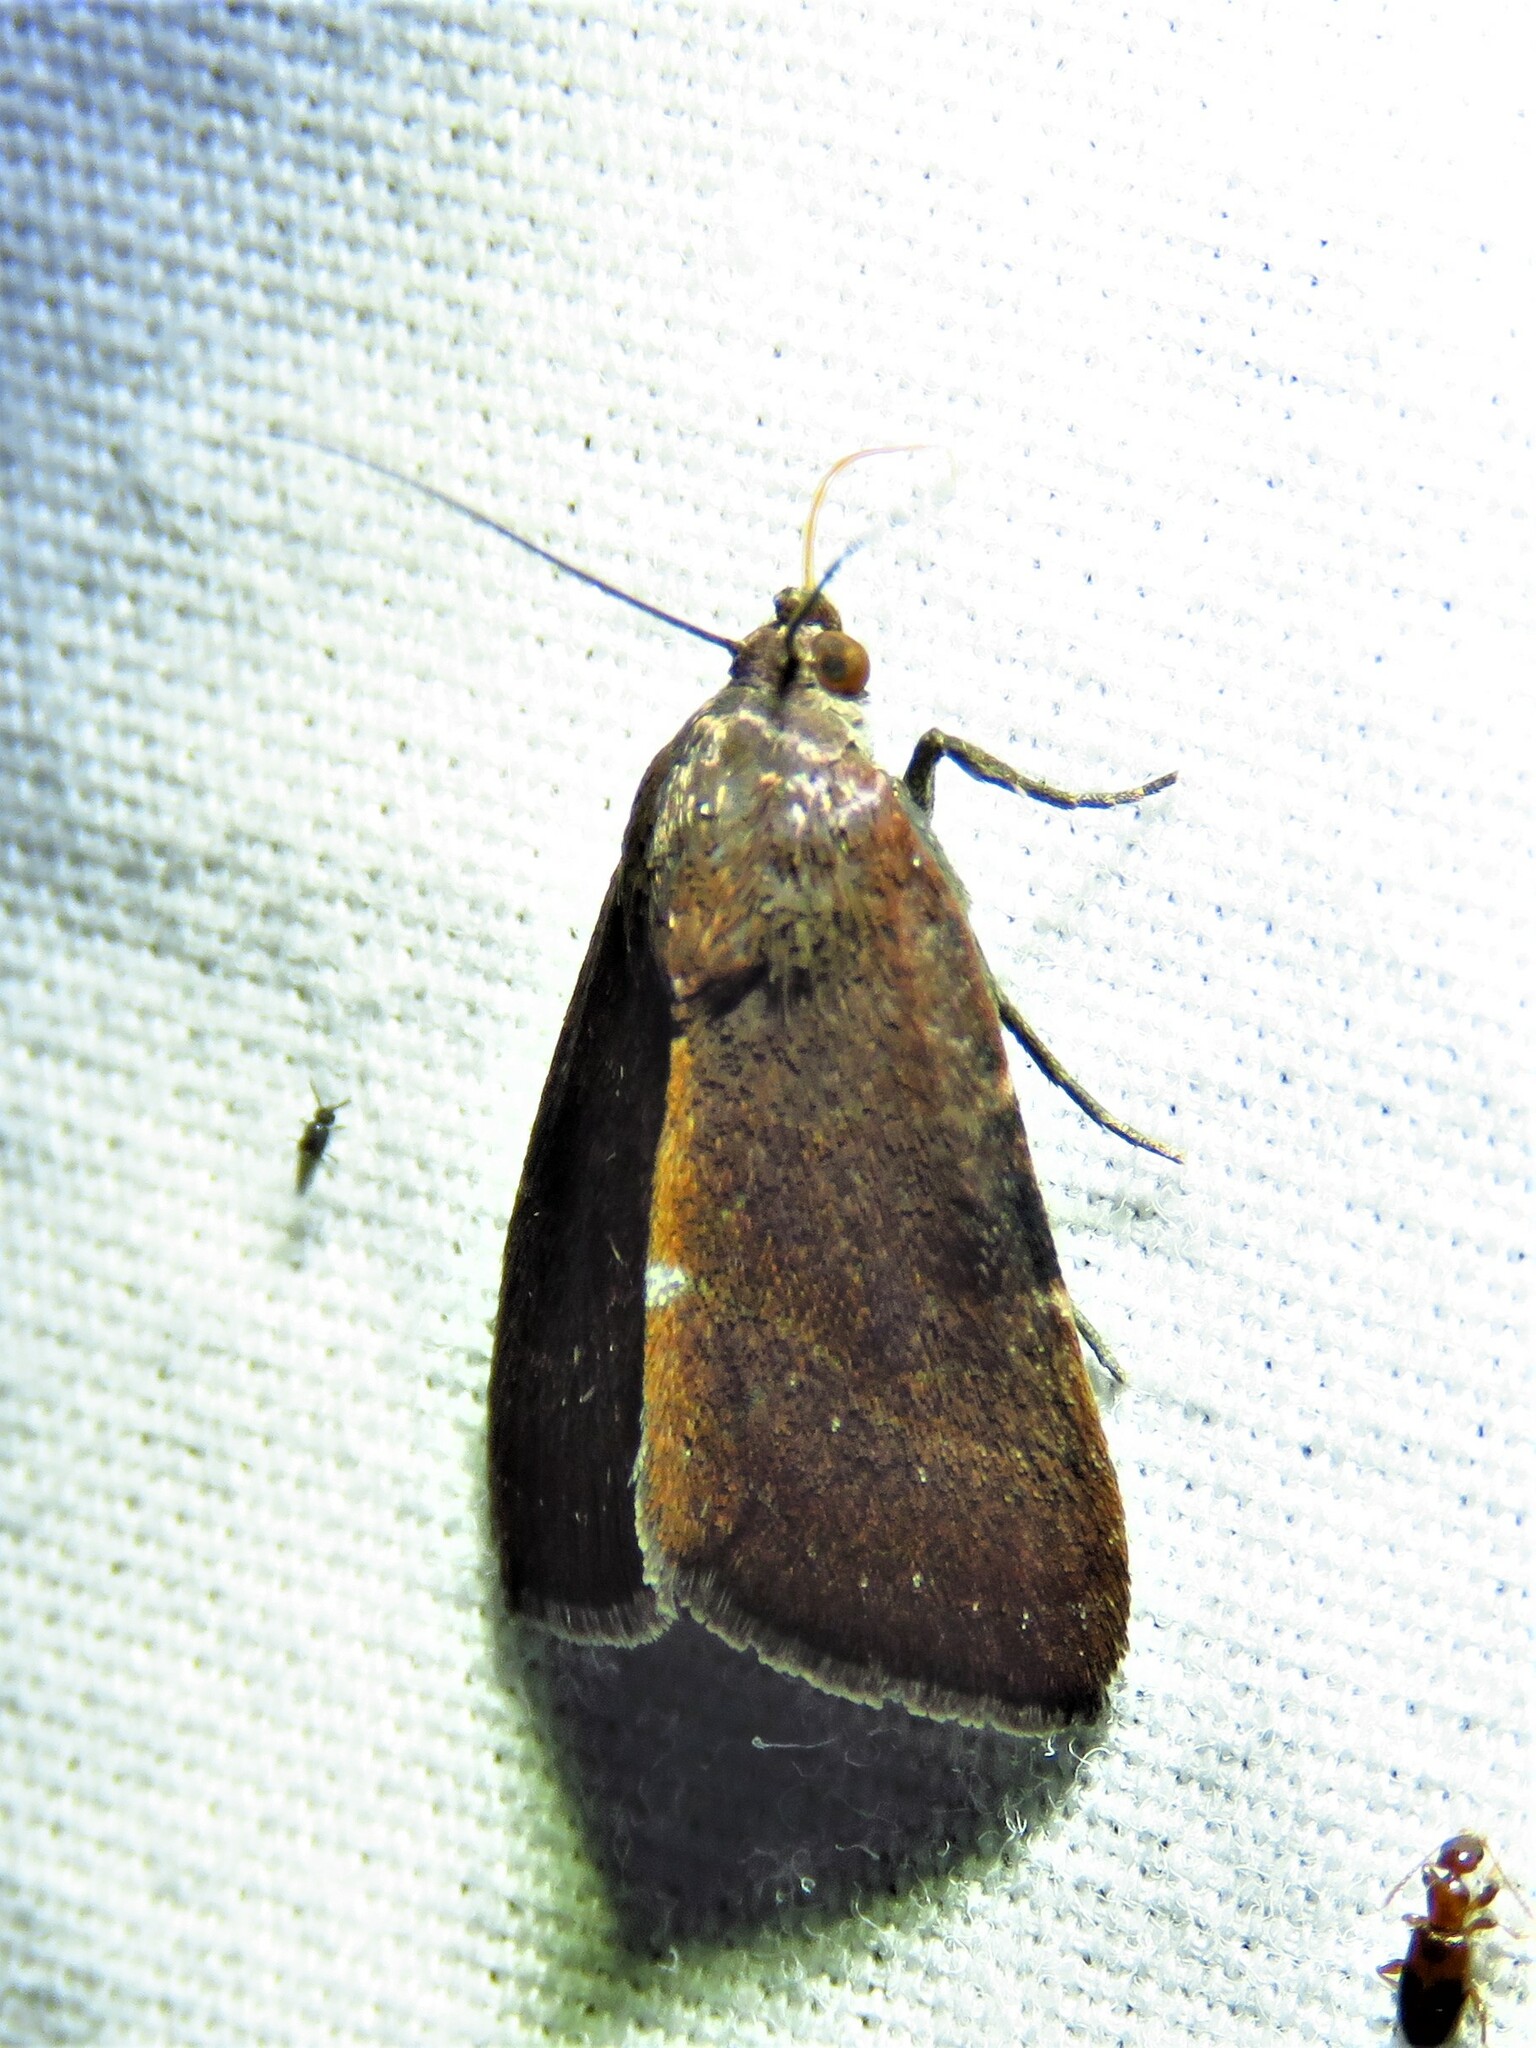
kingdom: Animalia
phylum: Arthropoda
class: Insecta
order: Lepidoptera
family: Noctuidae
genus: Galgula
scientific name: Galgula partita
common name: Wedgeling
